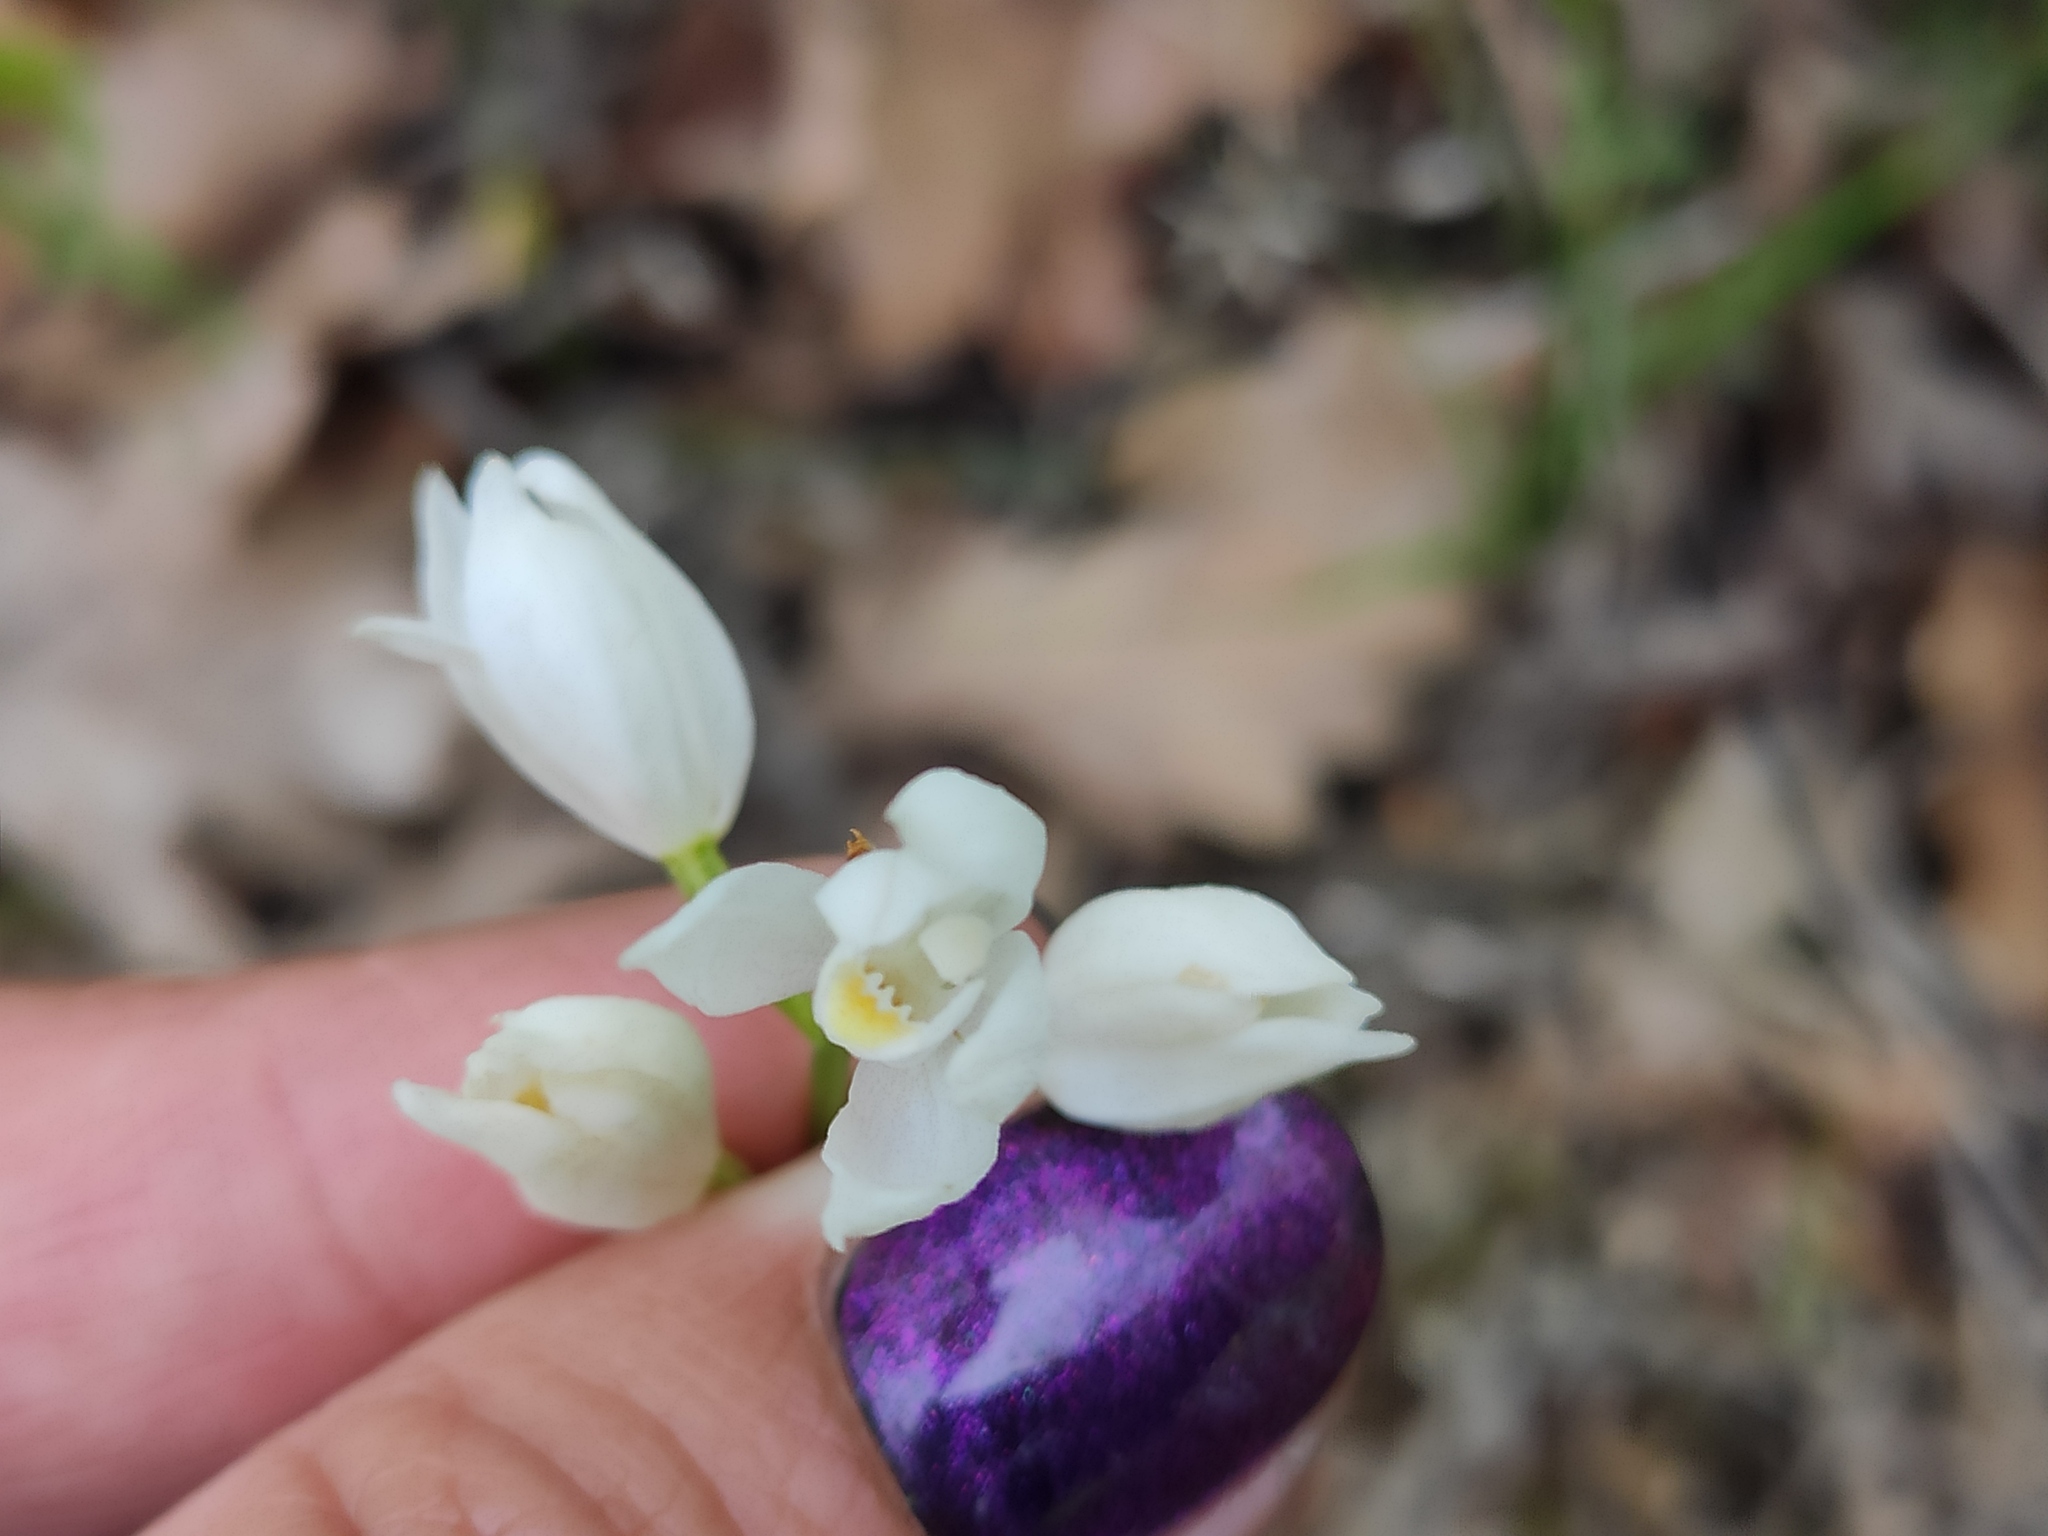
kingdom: Plantae
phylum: Tracheophyta
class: Liliopsida
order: Asparagales
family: Orchidaceae
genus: Cephalanthera
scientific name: Cephalanthera longifolia
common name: Narrow-leaved helleborine
